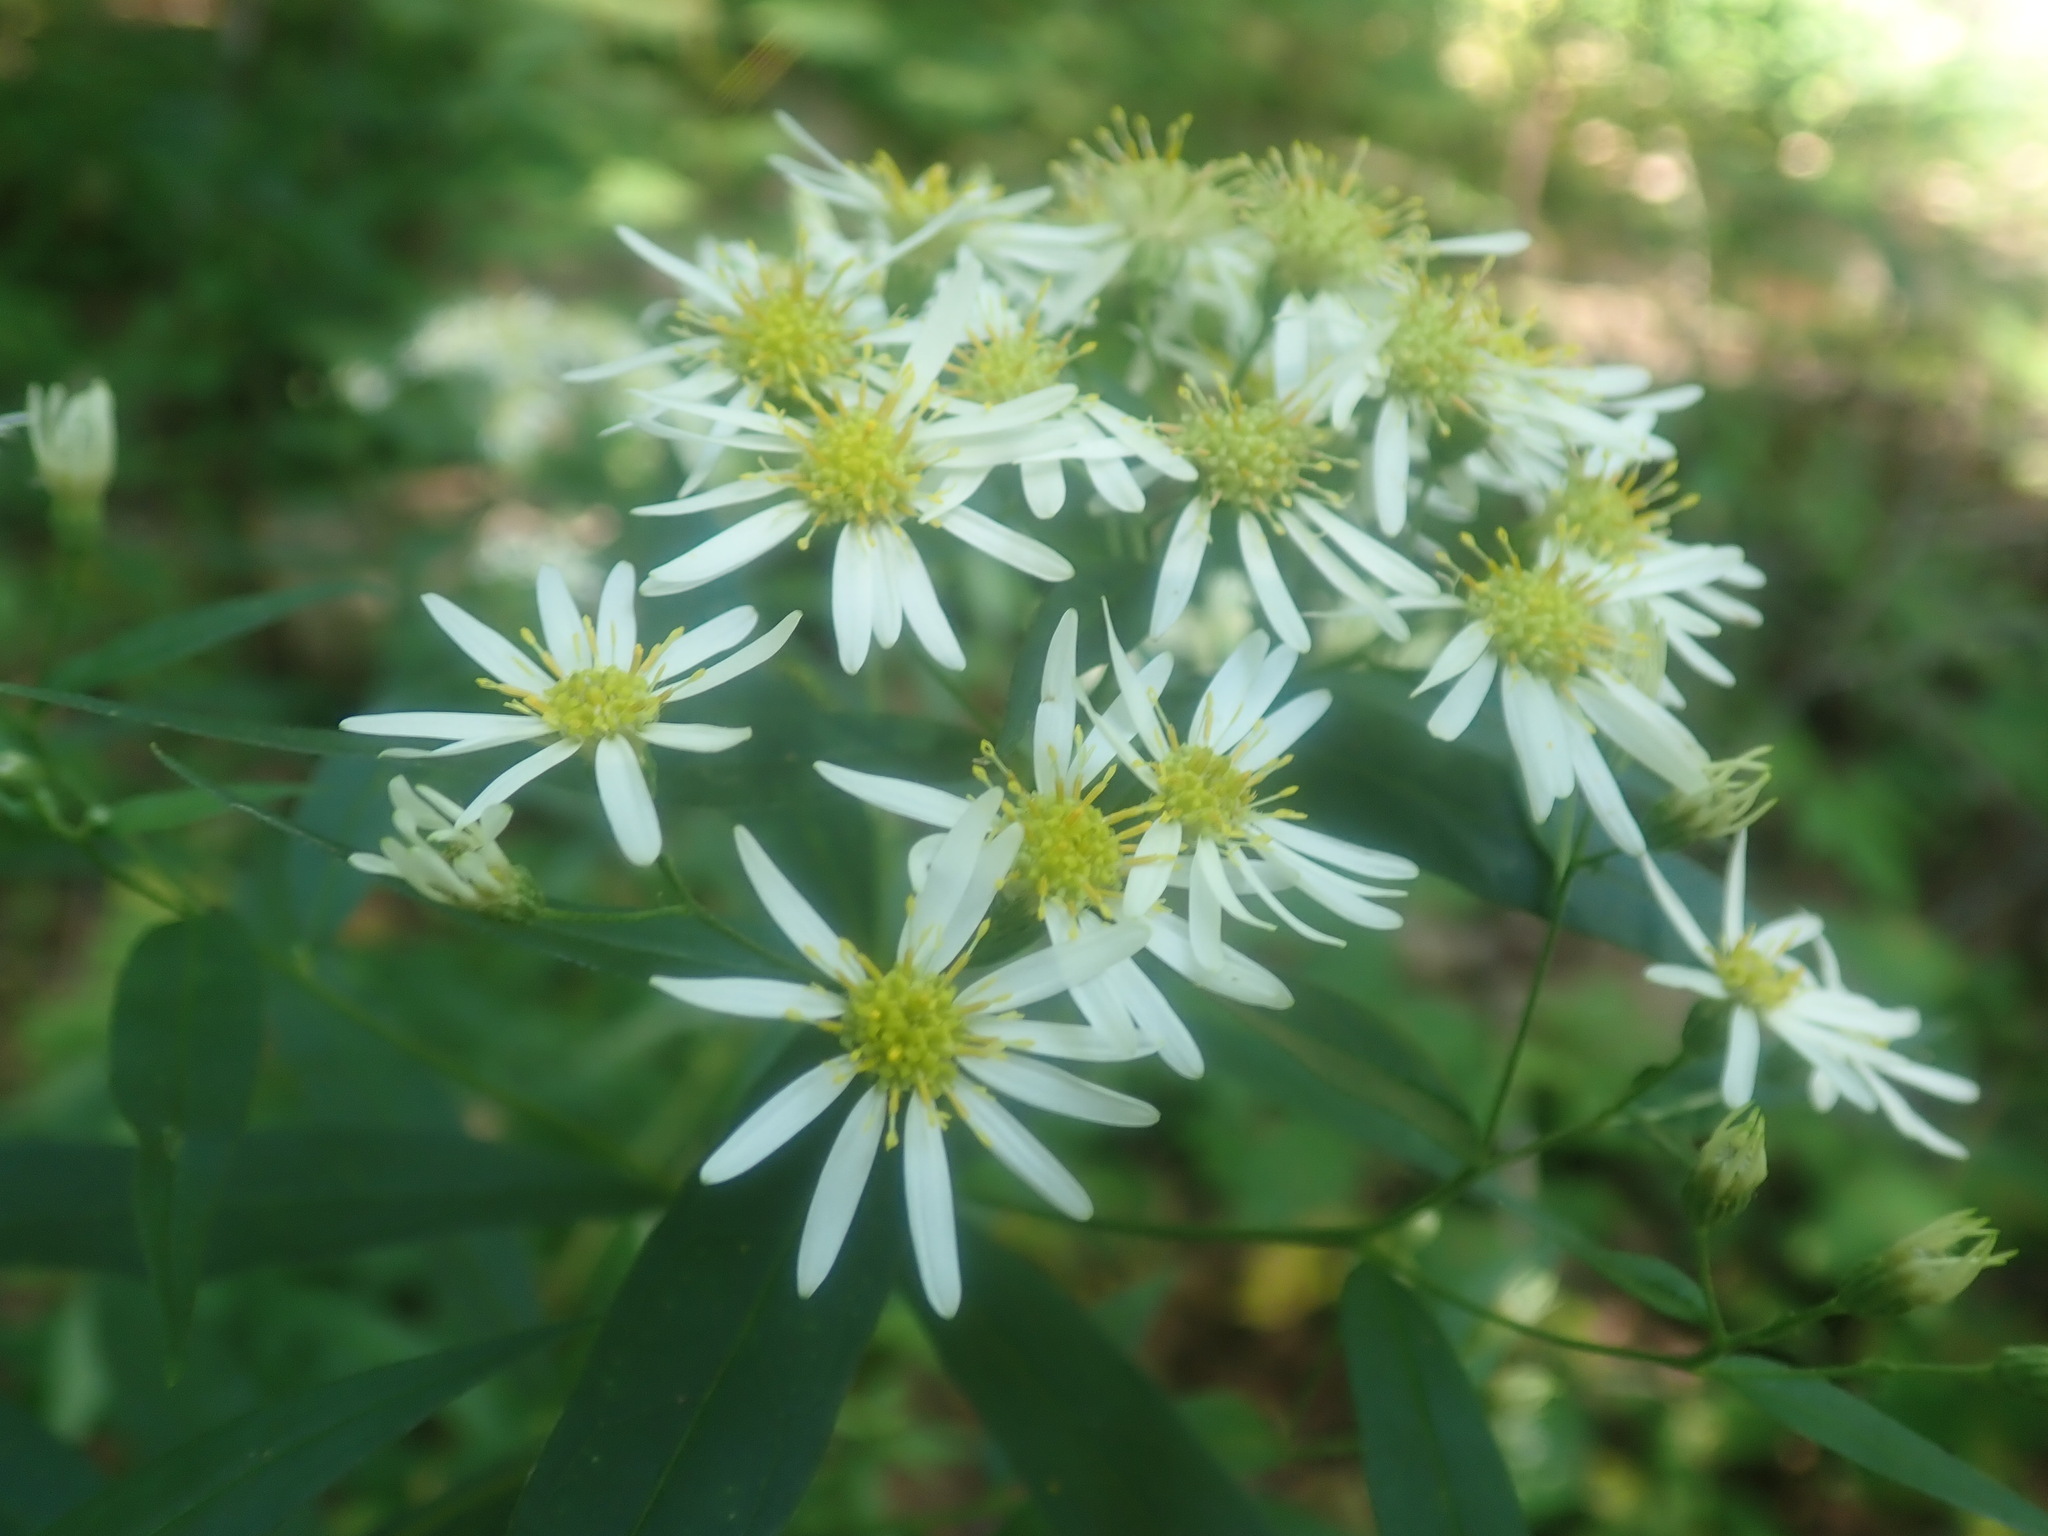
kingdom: Plantae
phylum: Tracheophyta
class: Magnoliopsida
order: Asterales
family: Asteraceae
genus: Doellingeria
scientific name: Doellingeria umbellata
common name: Flat-top white aster
